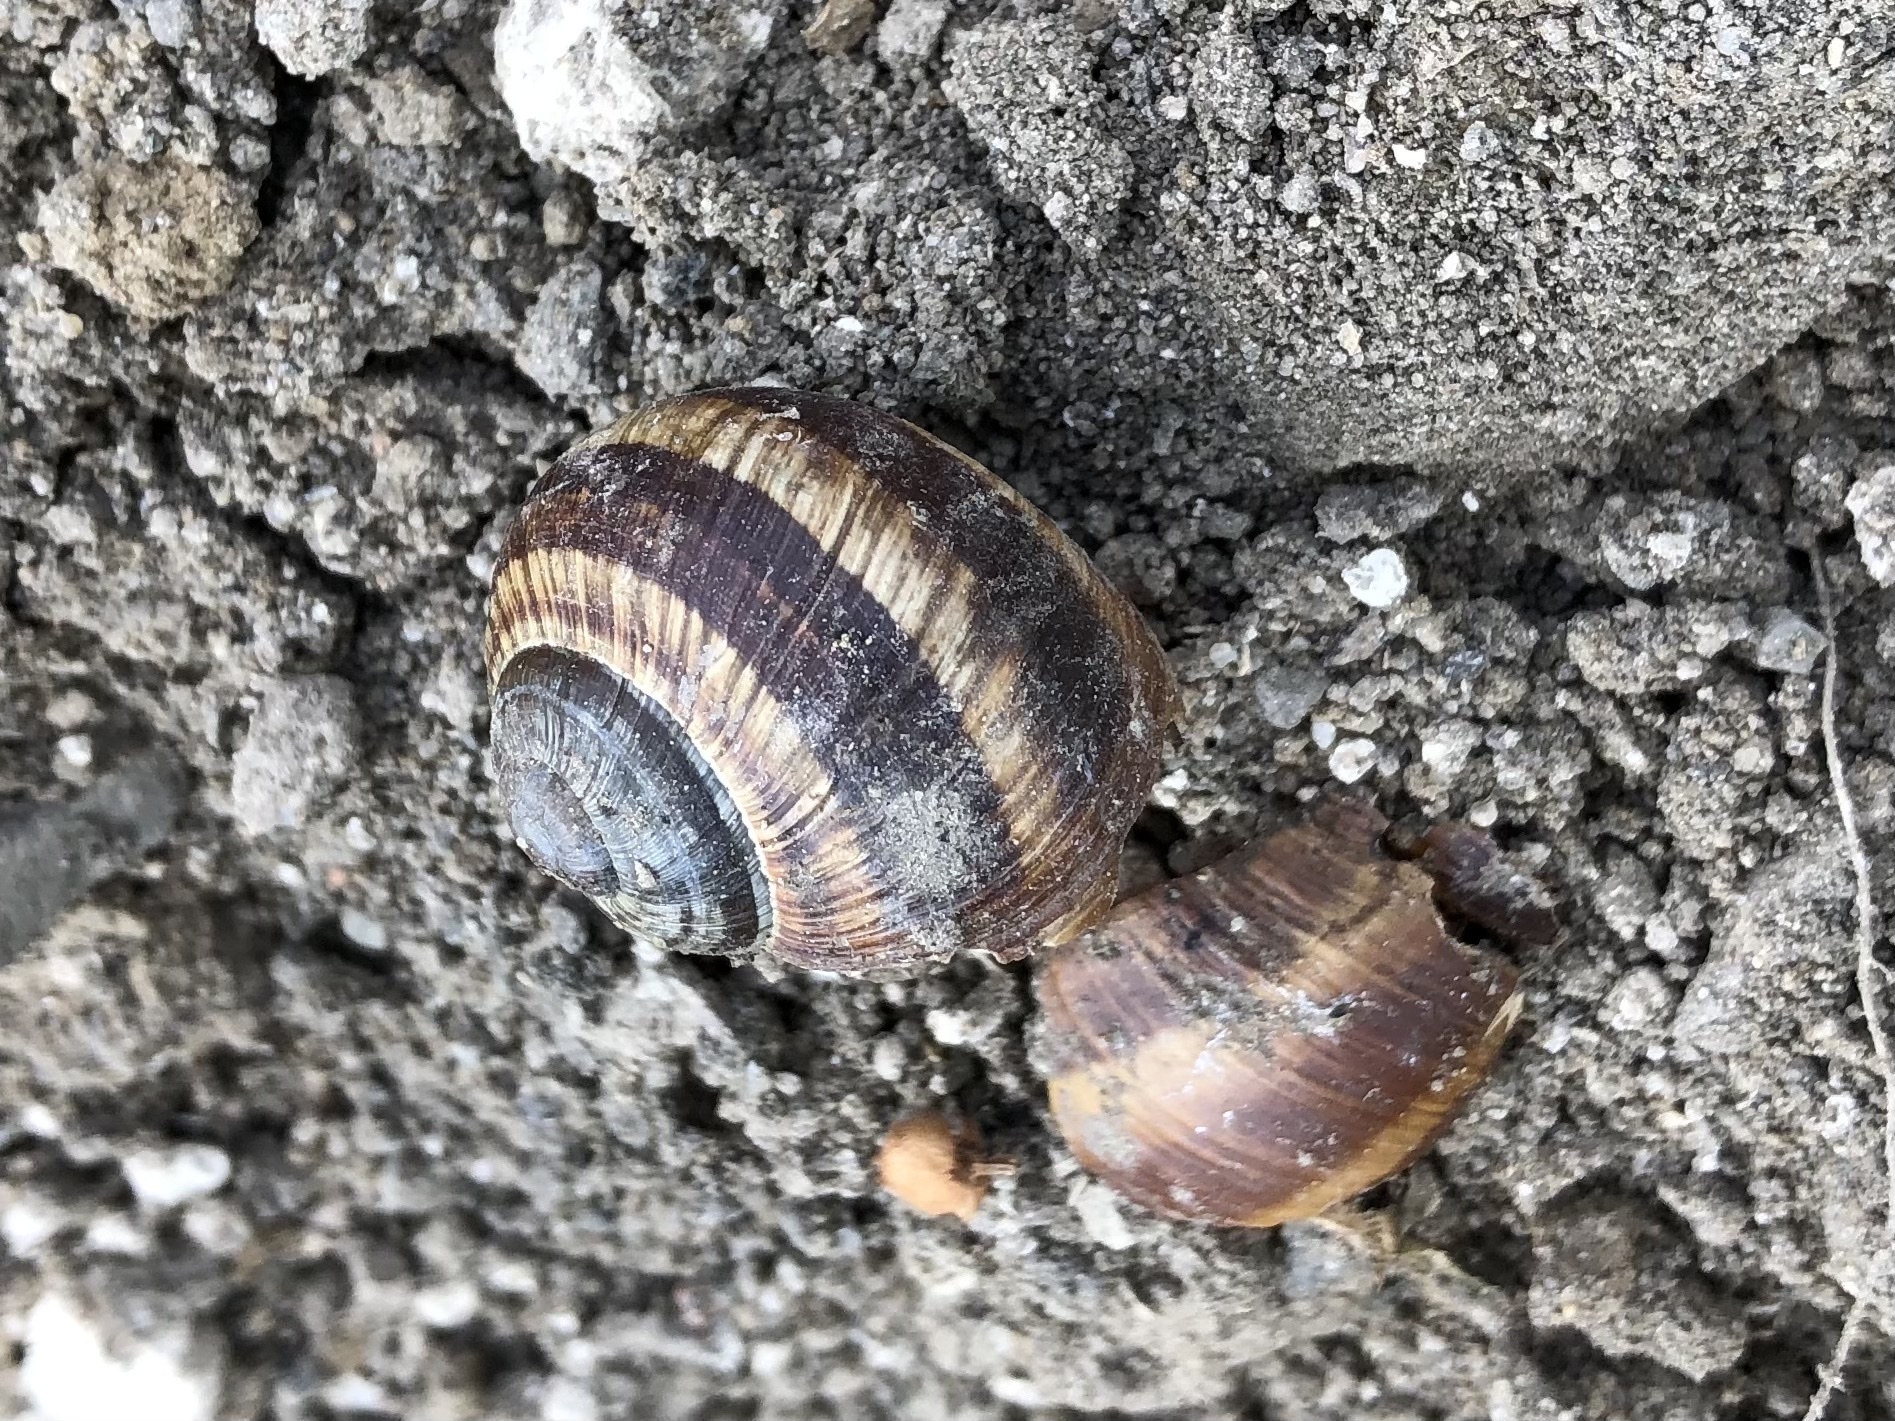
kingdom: Animalia
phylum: Mollusca
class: Gastropoda
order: Stylommatophora
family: Helicidae
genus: Helix
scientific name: Helix pomatia
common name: Roman snail
